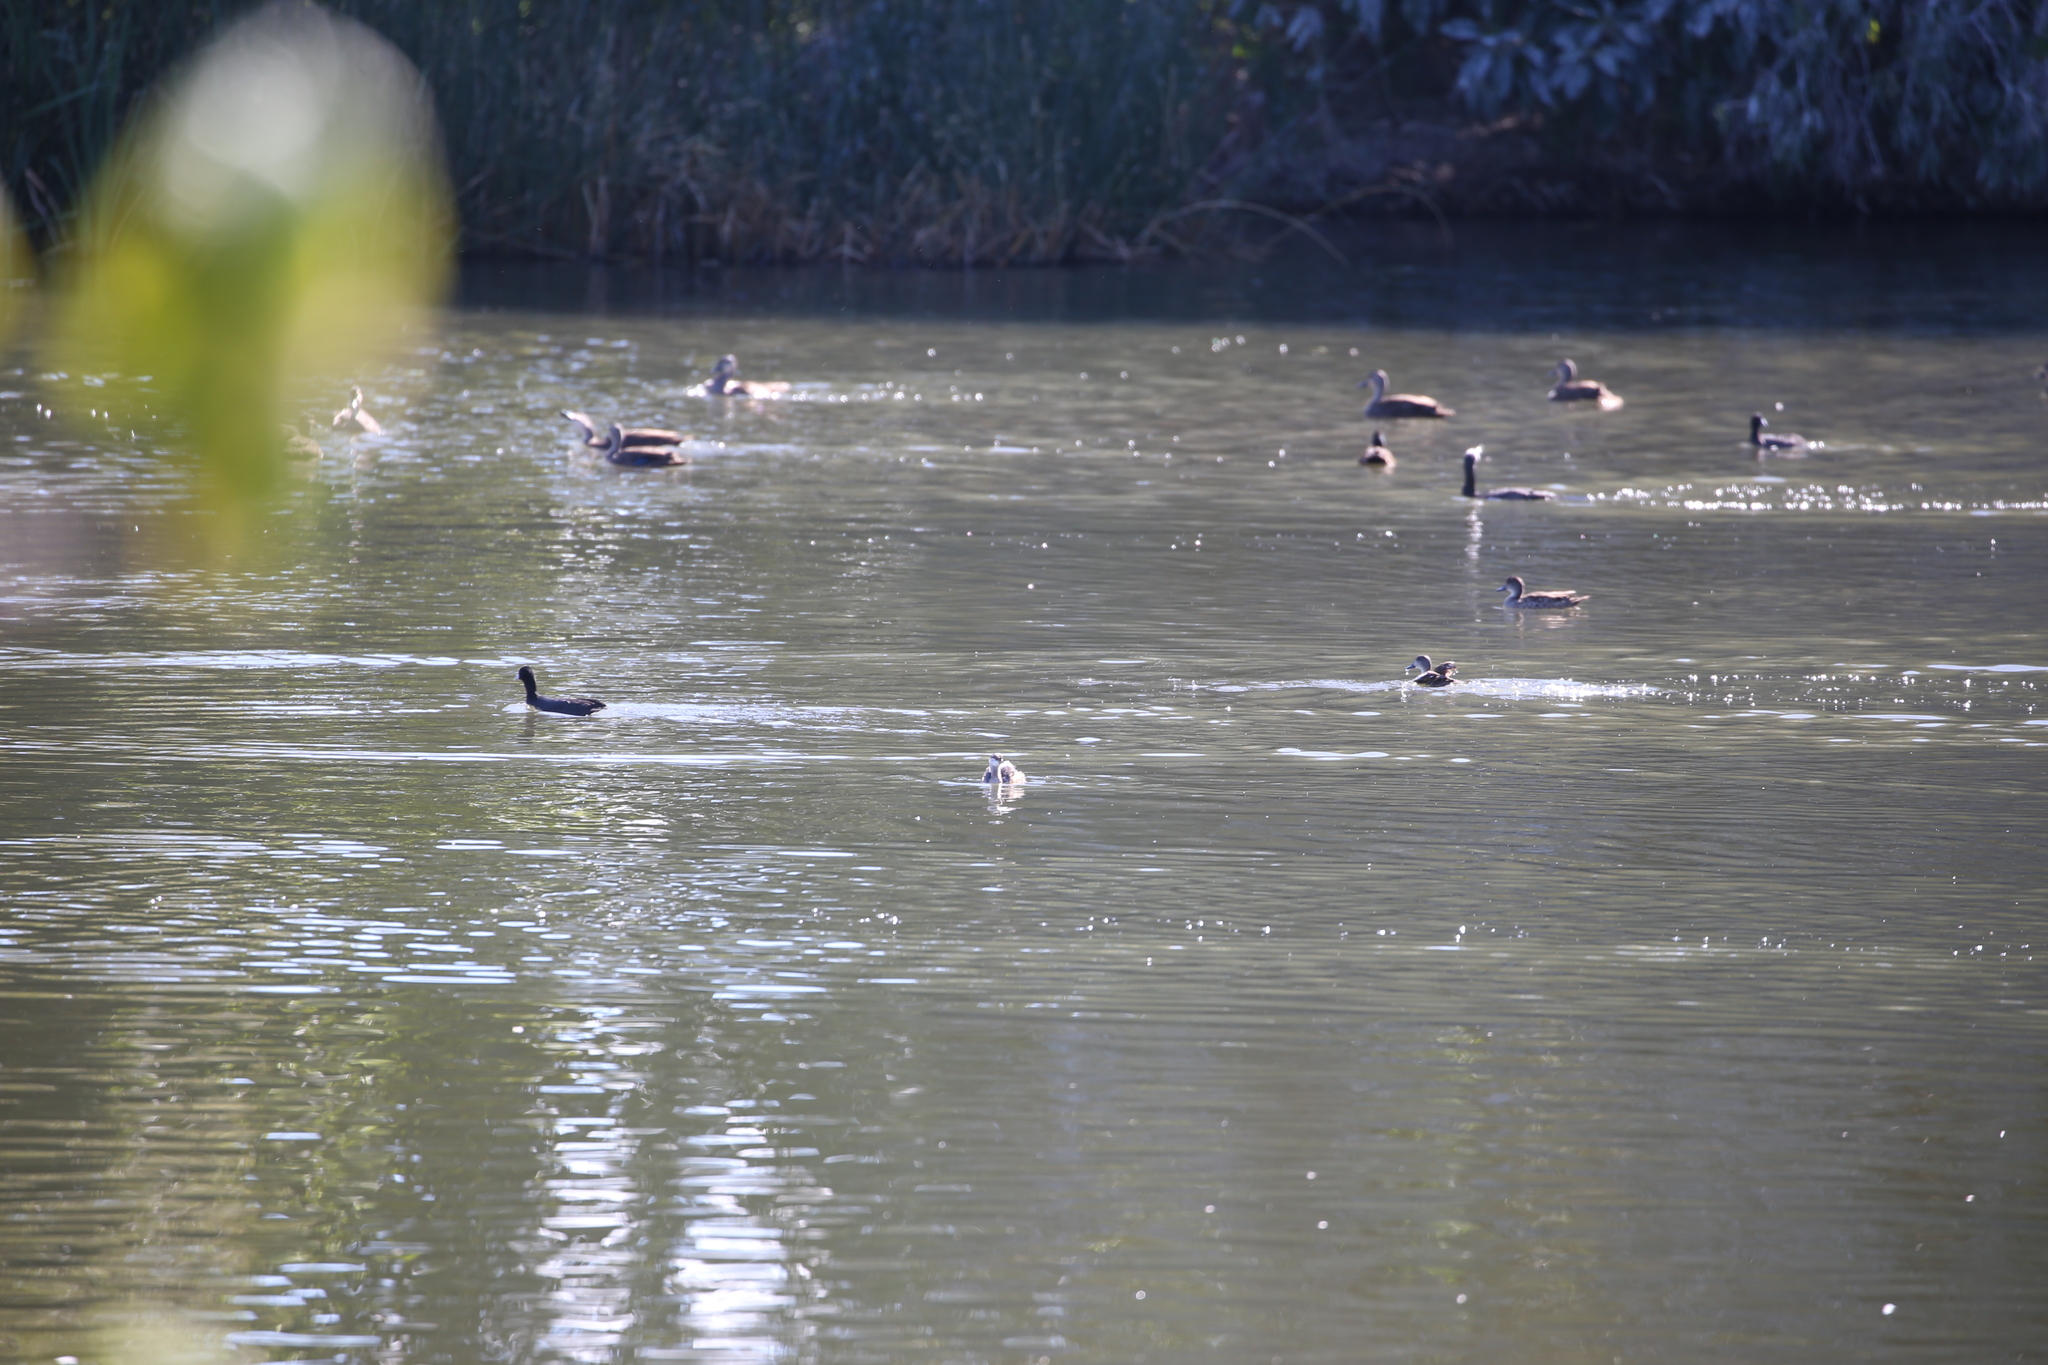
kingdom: Animalia
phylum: Chordata
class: Aves
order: Podicipediformes
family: Podicipedidae
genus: Tachybaptus
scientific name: Tachybaptus novaehollandiae
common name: Australasian grebe
